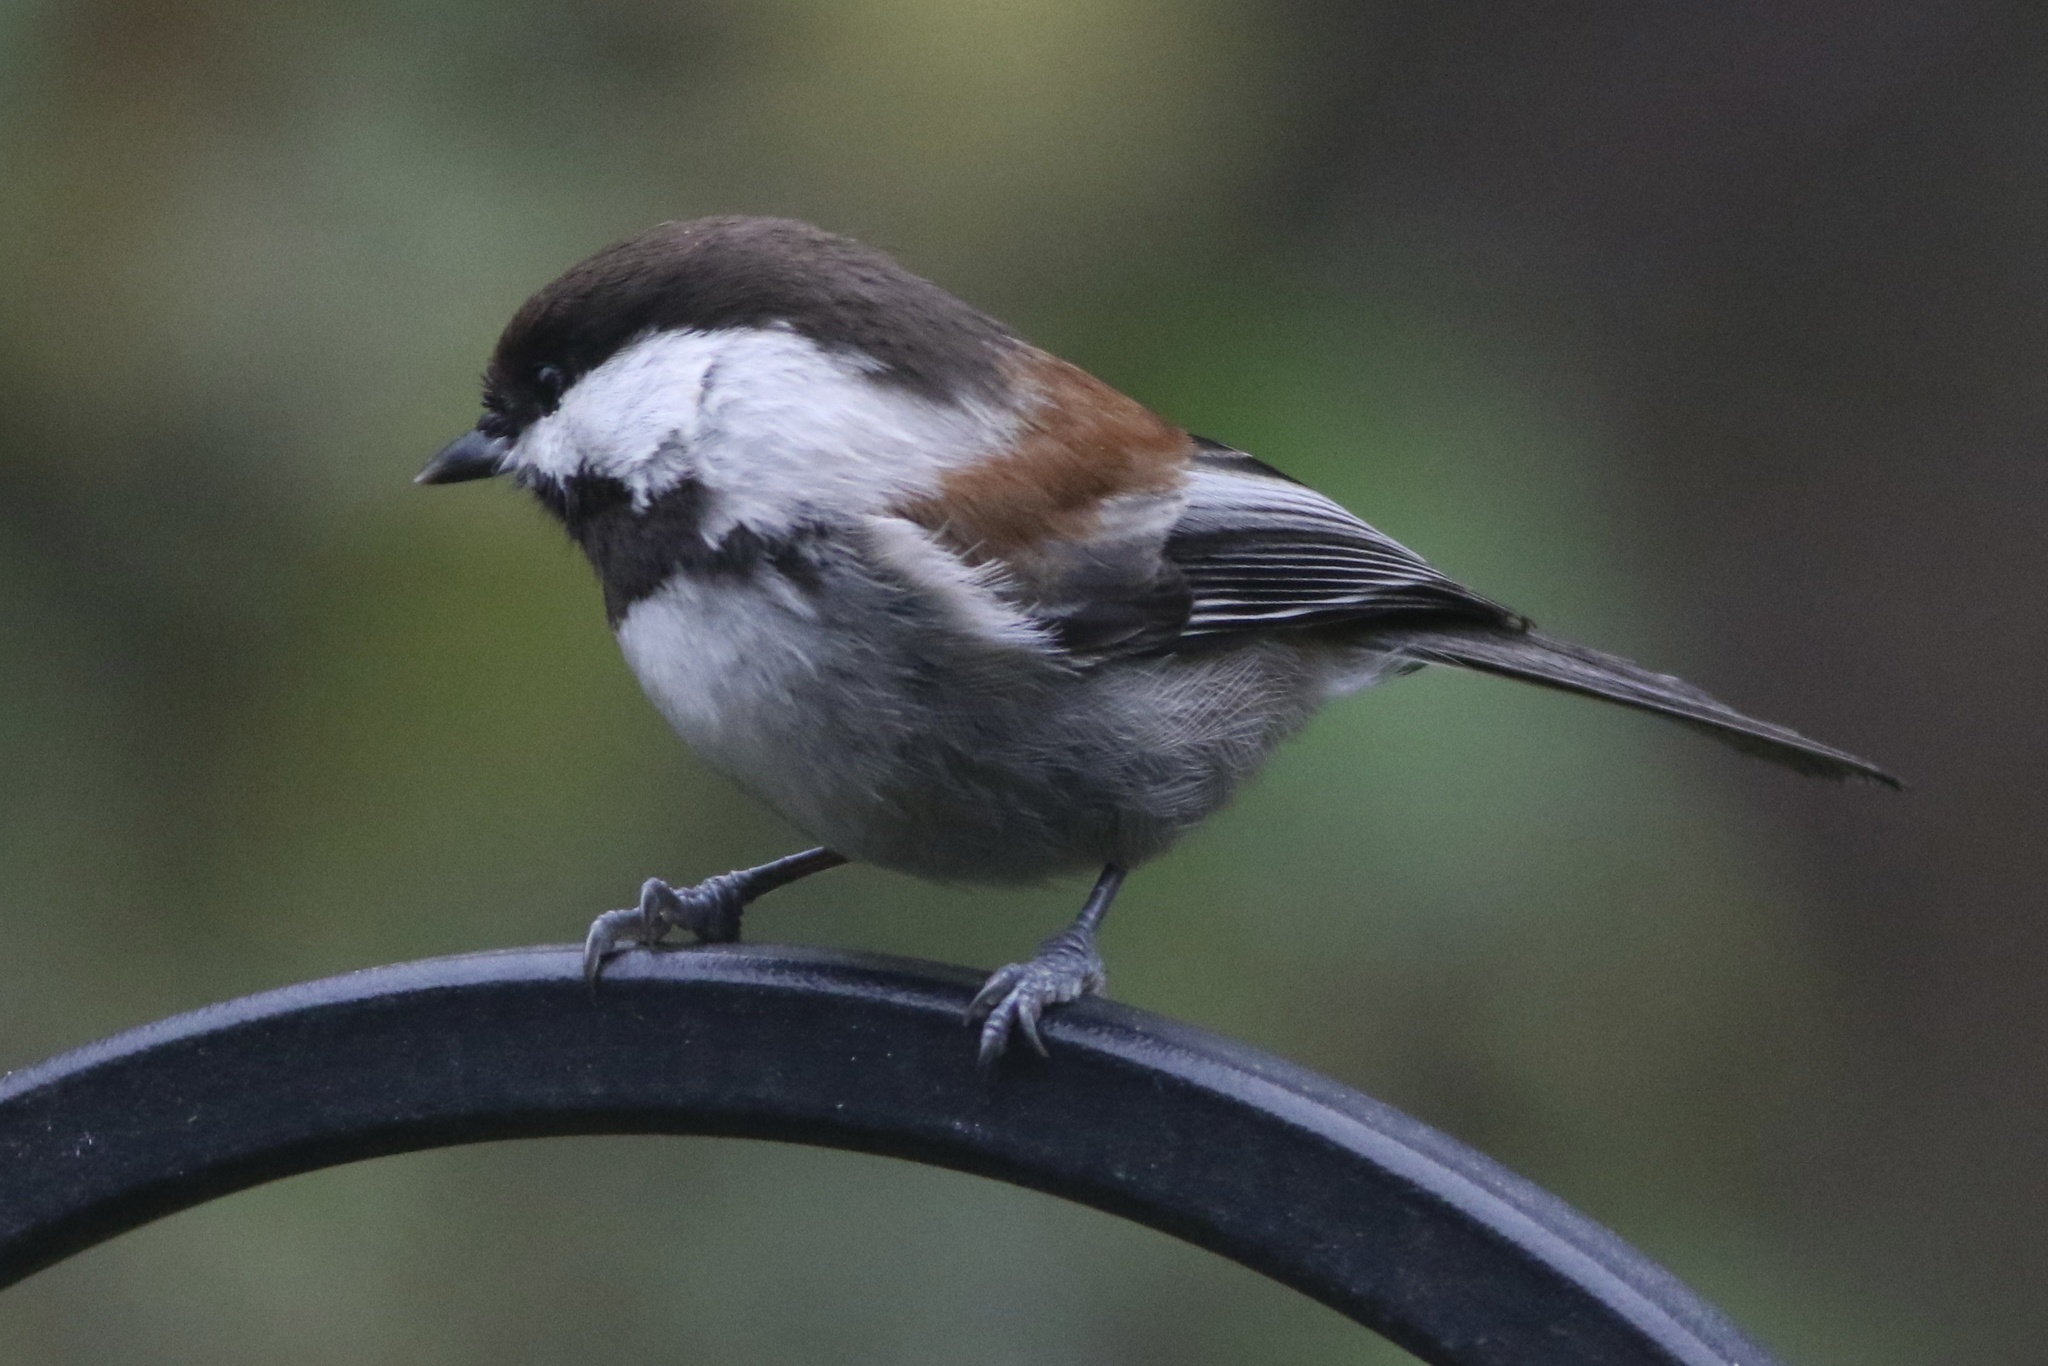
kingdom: Animalia
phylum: Chordata
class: Aves
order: Passeriformes
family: Paridae
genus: Poecile
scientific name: Poecile rufescens
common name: Chestnut-backed chickadee
